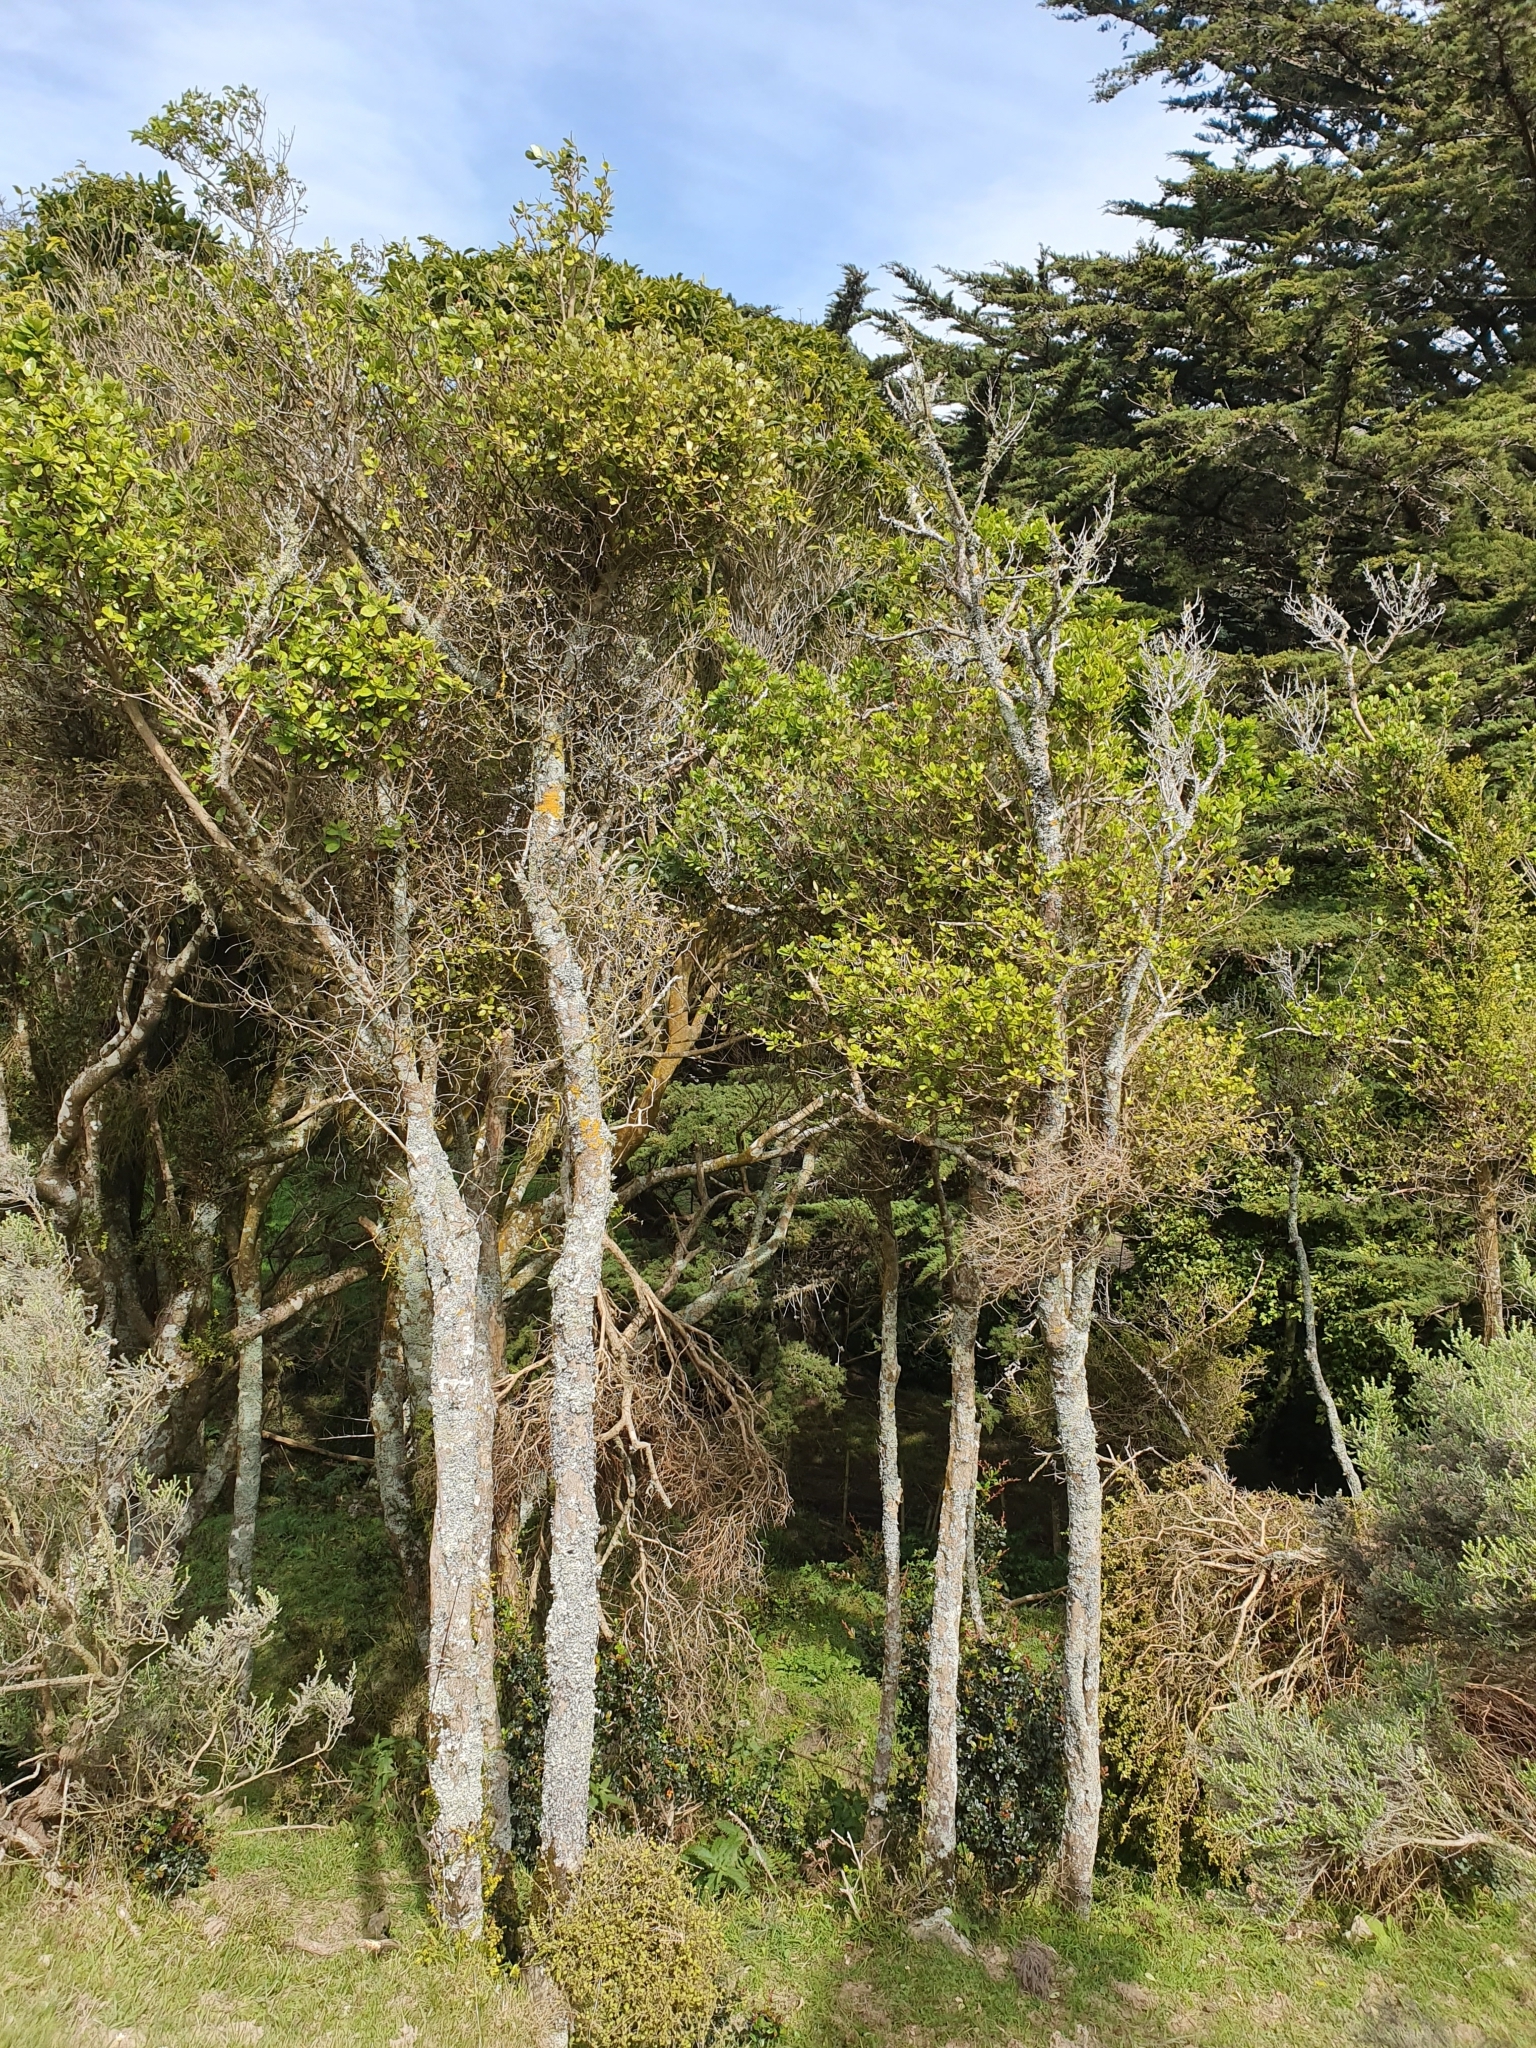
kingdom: Plantae
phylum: Tracheophyta
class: Magnoliopsida
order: Apiales
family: Pennantiaceae
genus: Pennantia
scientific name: Pennantia corymbosa
